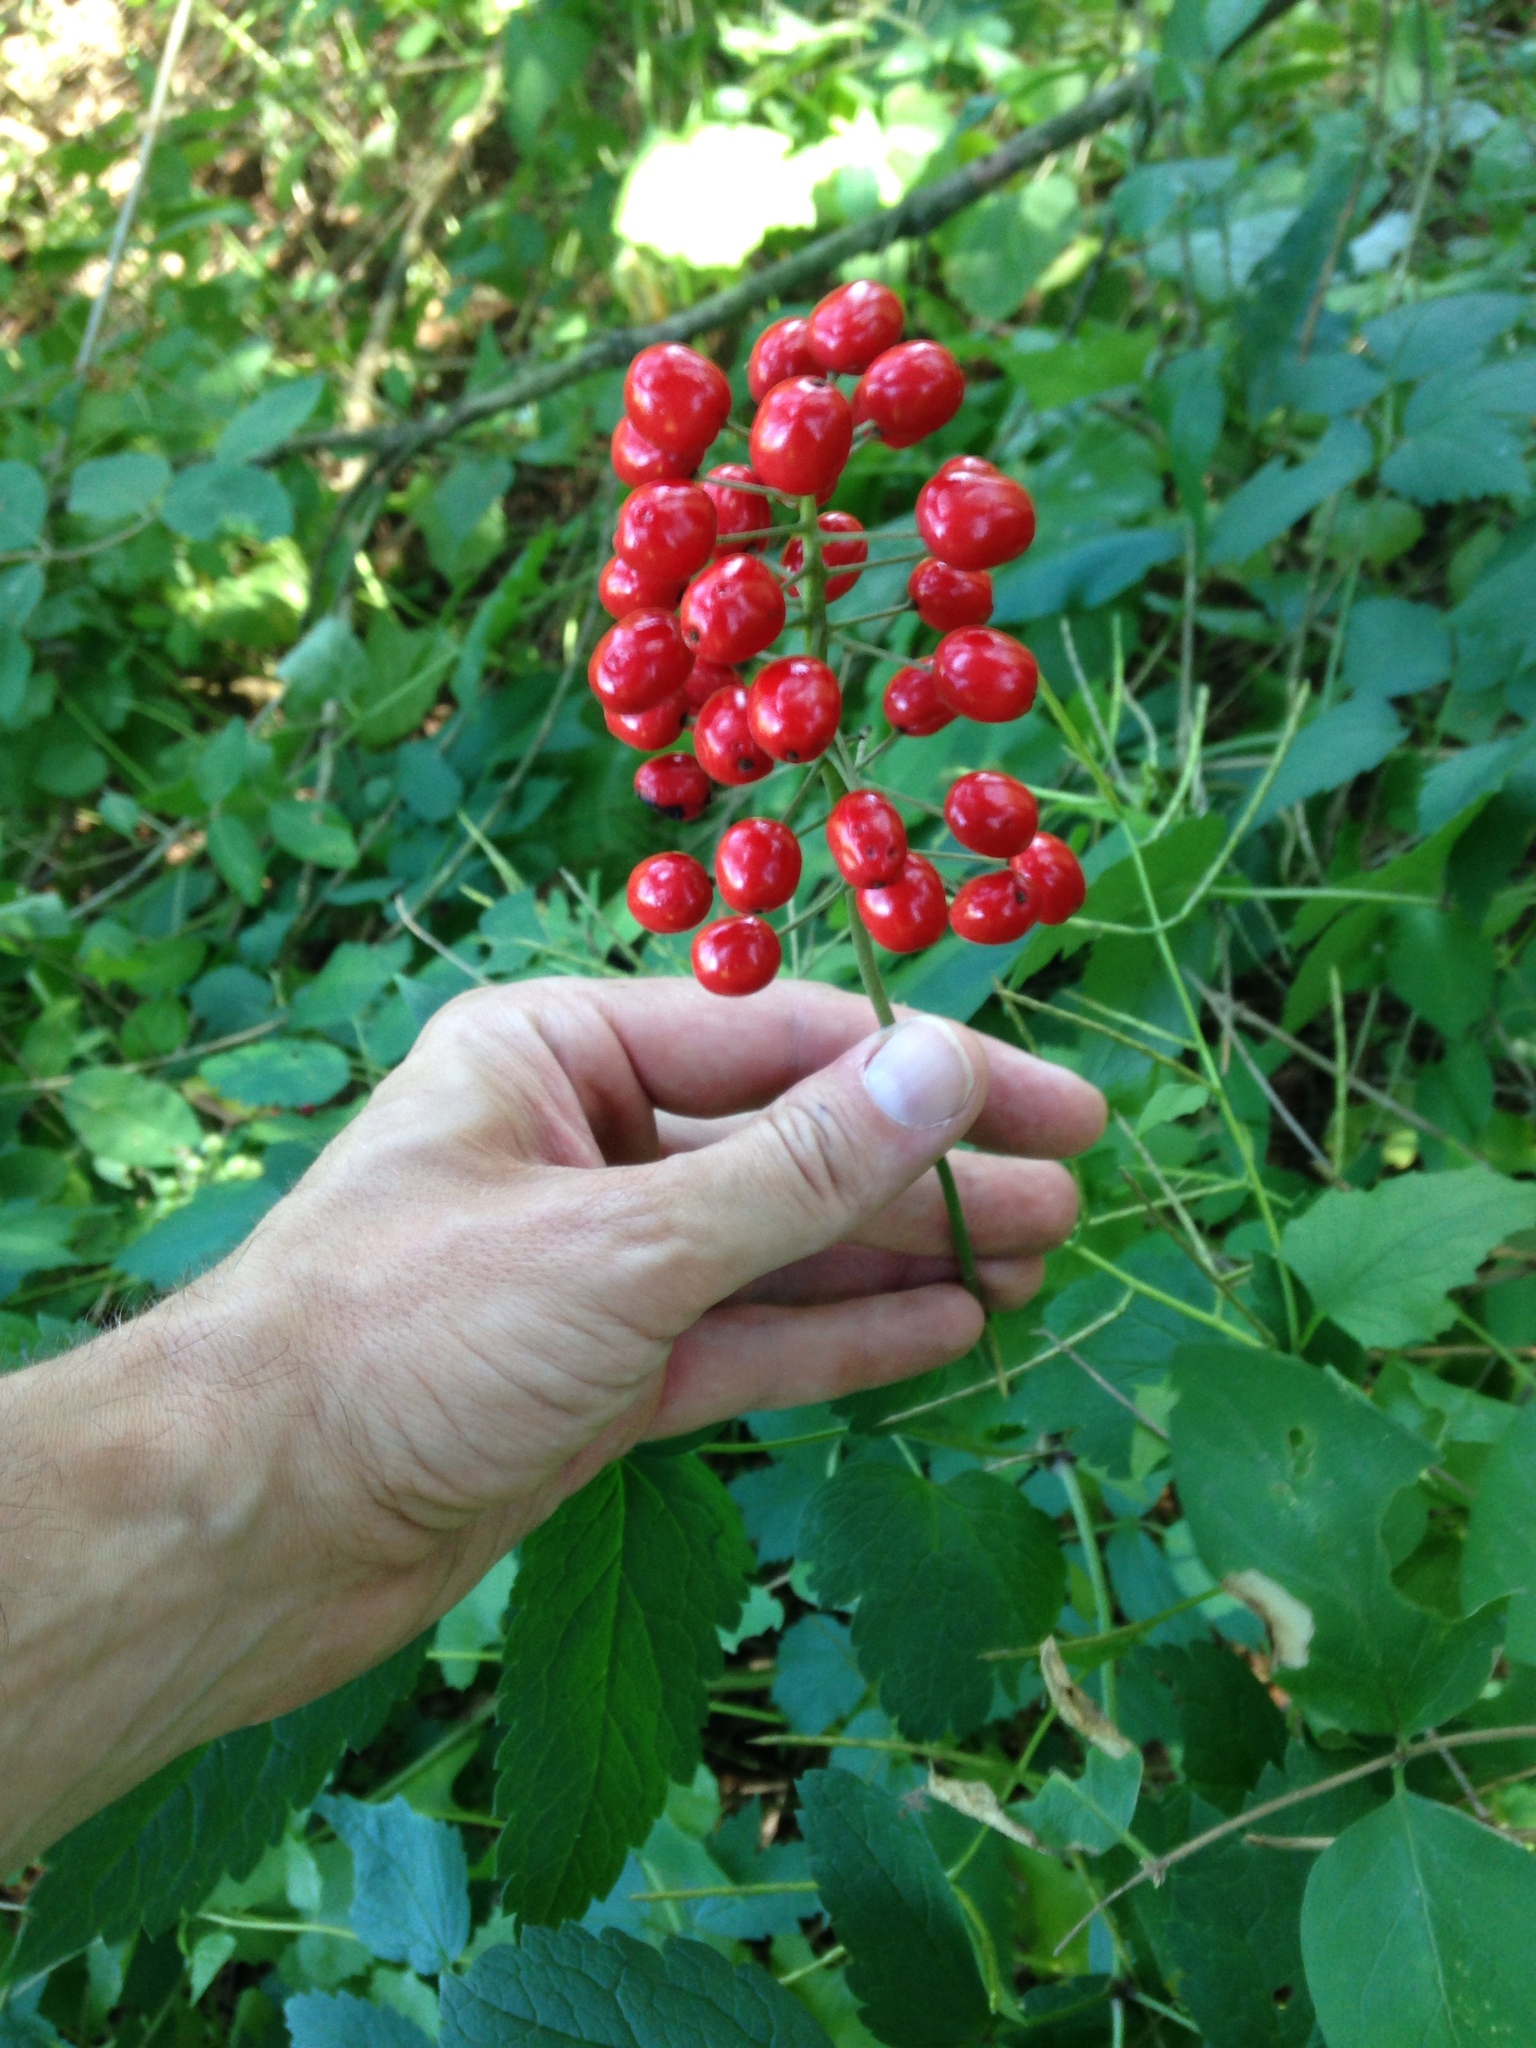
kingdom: Plantae
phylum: Tracheophyta
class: Magnoliopsida
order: Ranunculales
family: Ranunculaceae
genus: Actaea
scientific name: Actaea rubra
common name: Red baneberry
